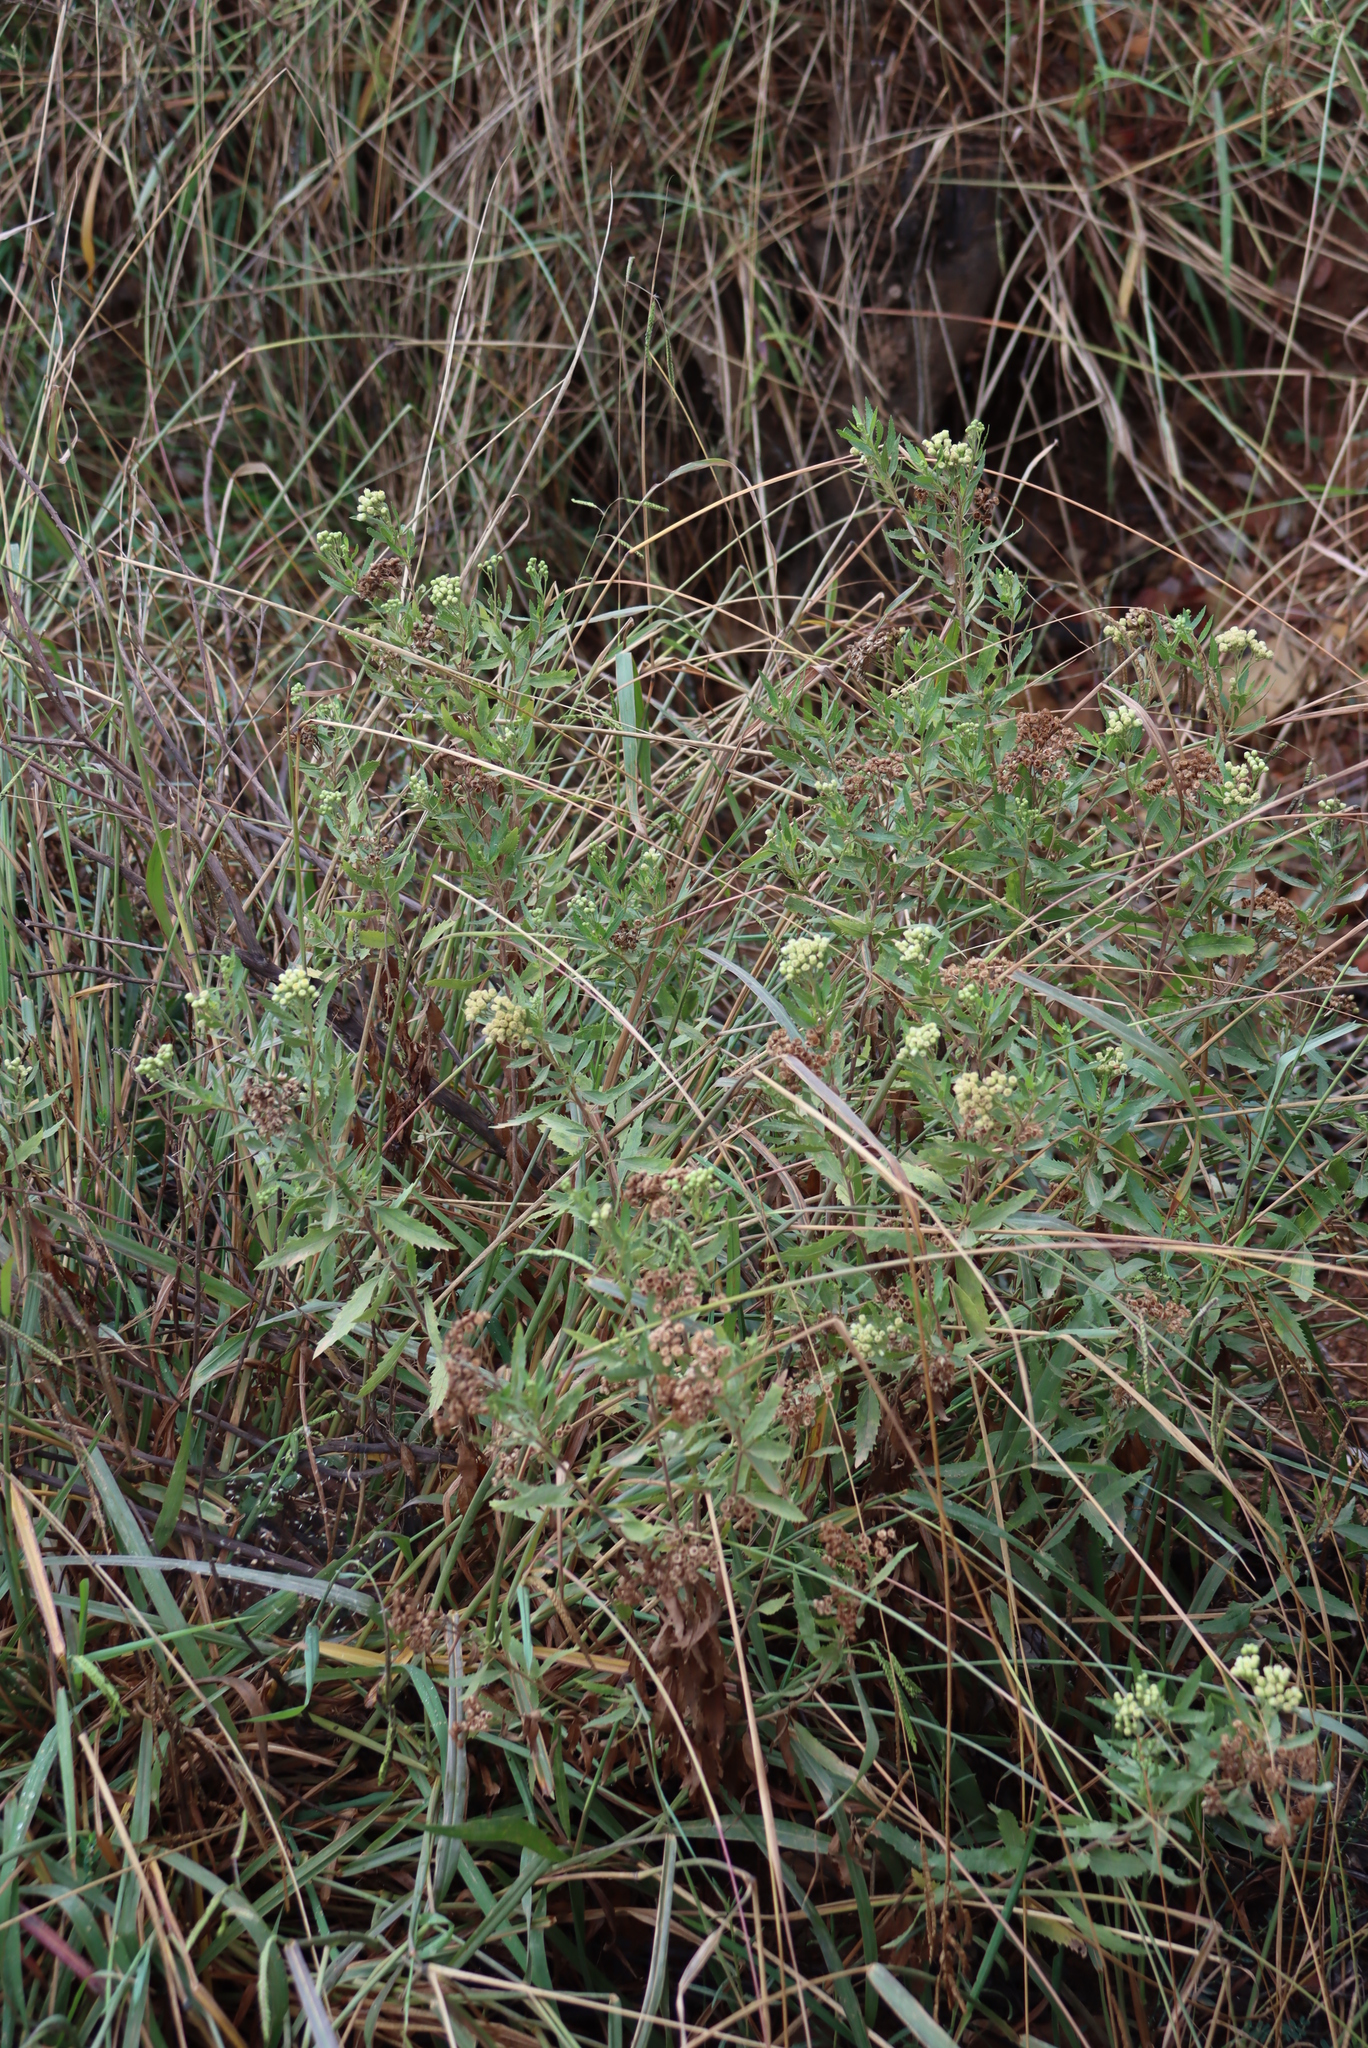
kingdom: Plantae
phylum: Tracheophyta
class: Magnoliopsida
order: Asterales
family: Asteraceae
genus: Nidorella
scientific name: Nidorella ivifolia
